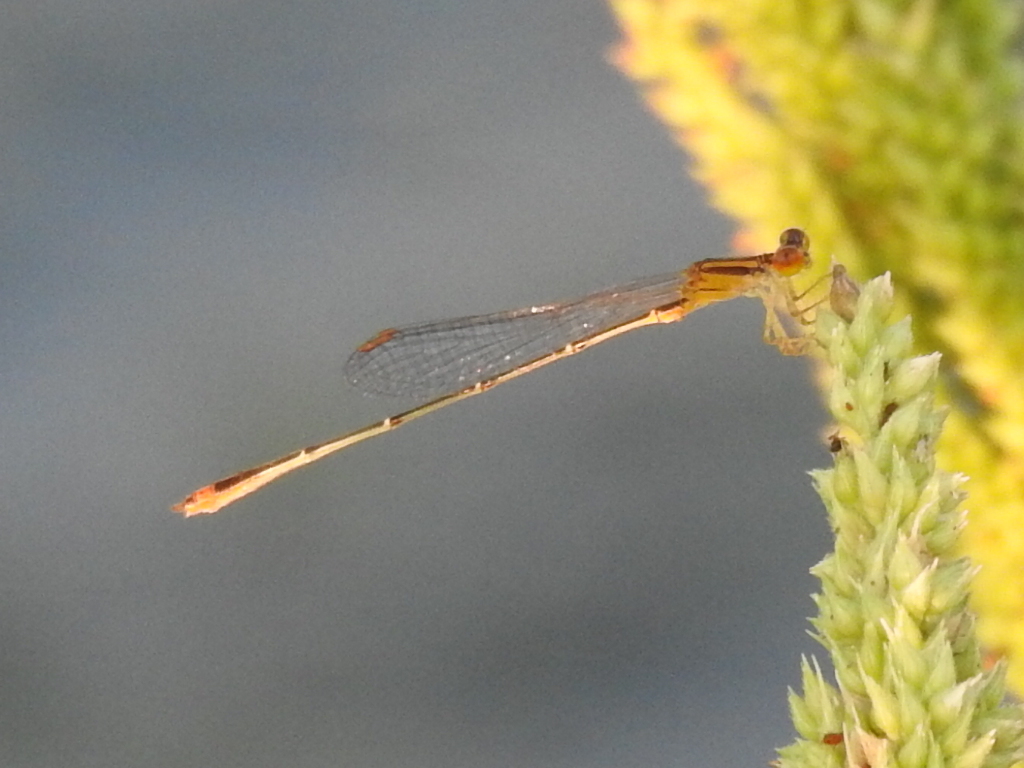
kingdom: Animalia
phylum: Arthropoda
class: Insecta
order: Odonata
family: Coenagrionidae
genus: Enallagma
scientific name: Enallagma signatum
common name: Orange bluet
